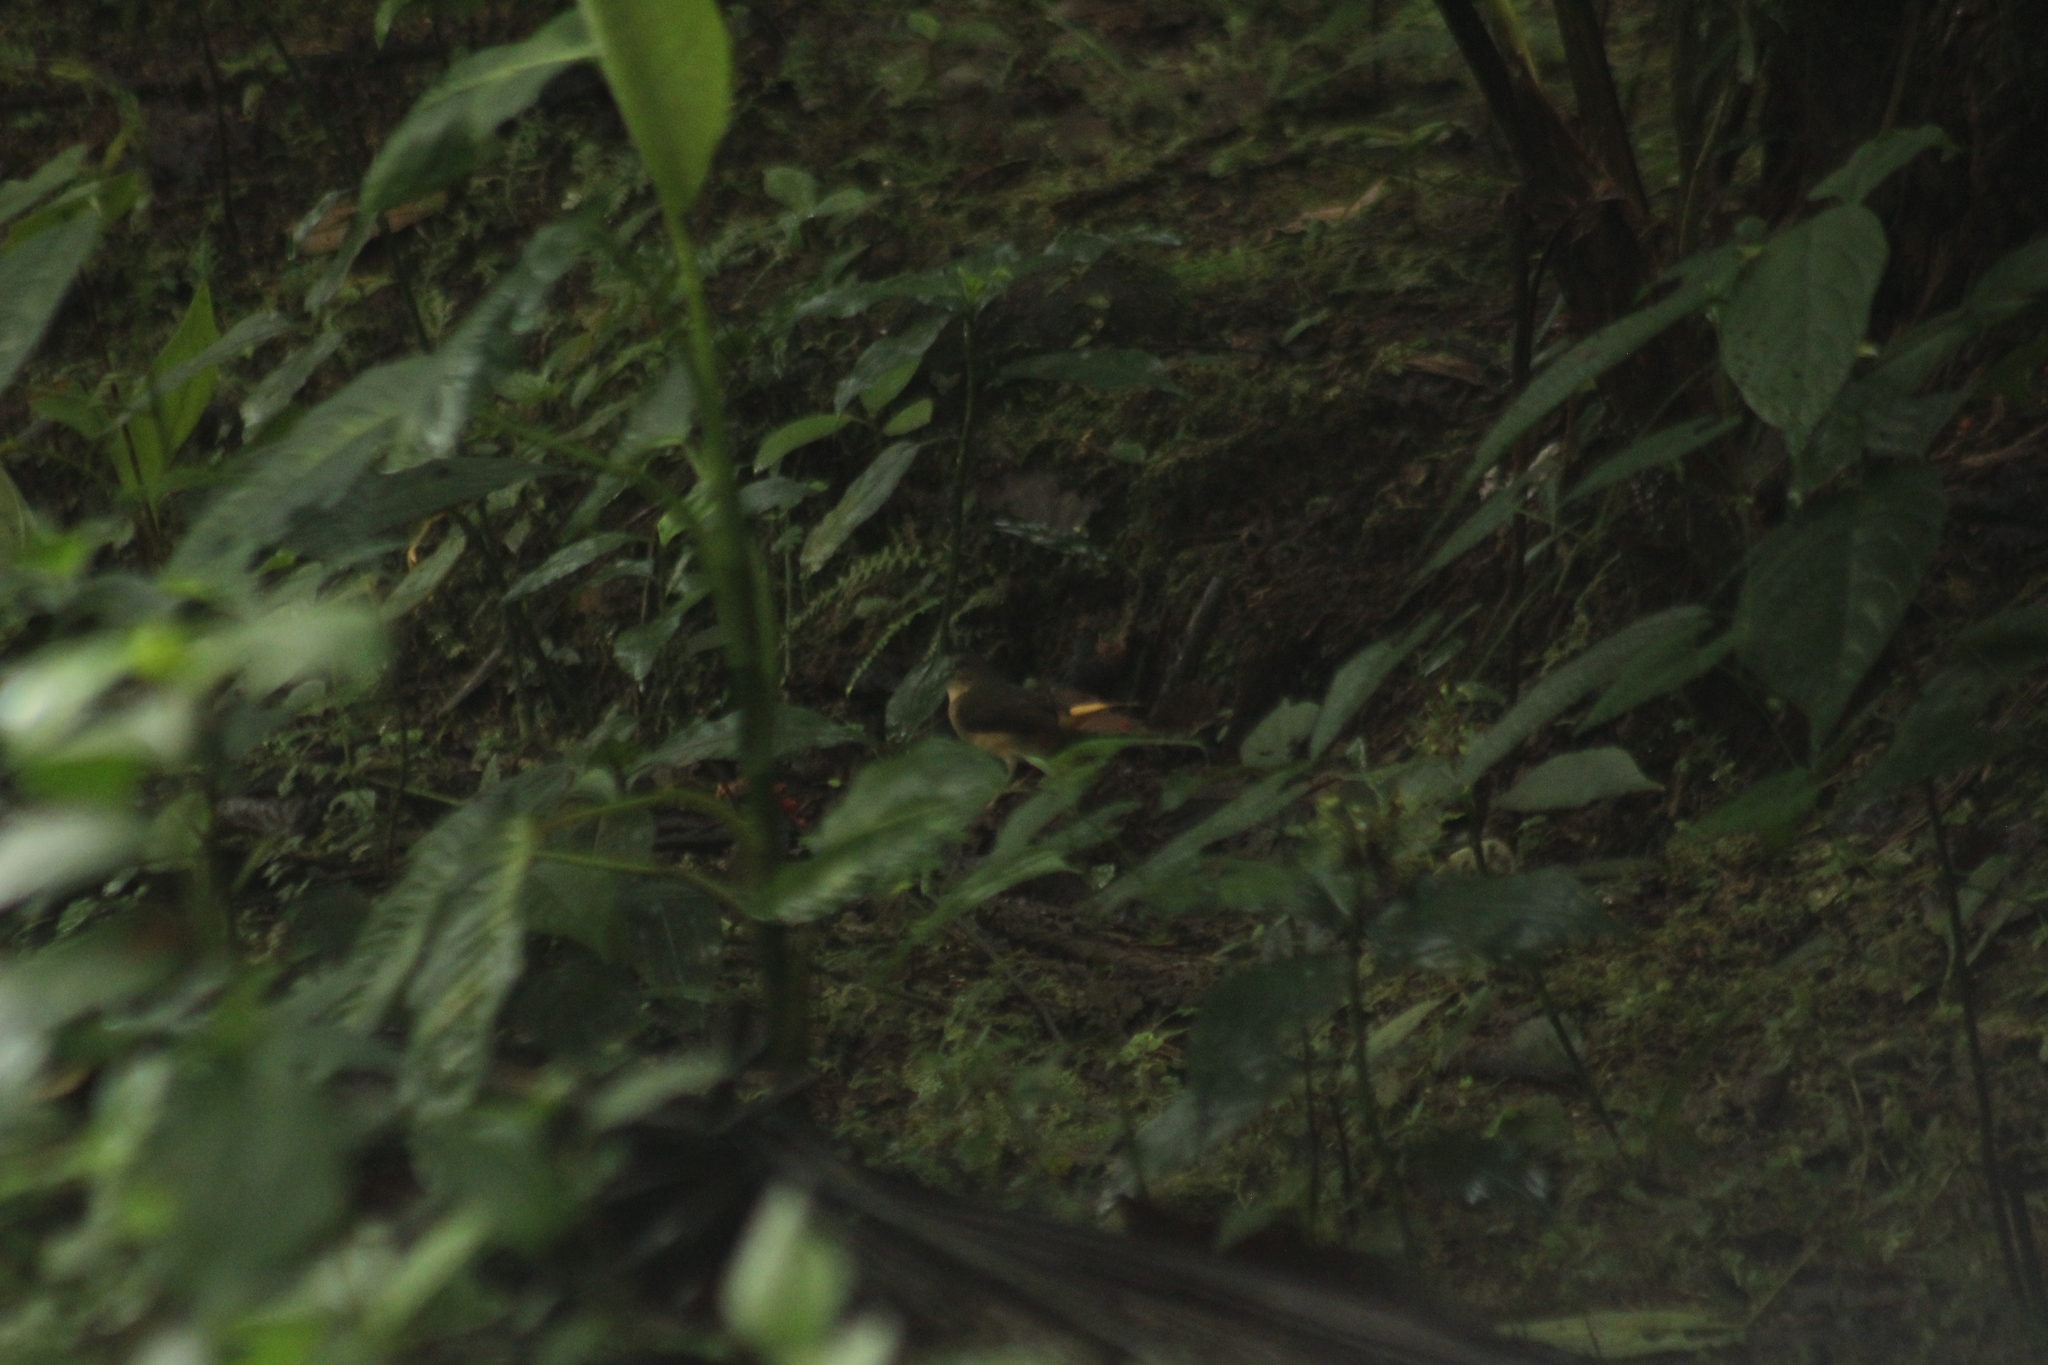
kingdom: Animalia
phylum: Chordata
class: Aves
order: Passeriformes
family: Parulidae
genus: Myiothlypis
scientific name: Myiothlypis fulvicauda
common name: Buff-rumped warbler
